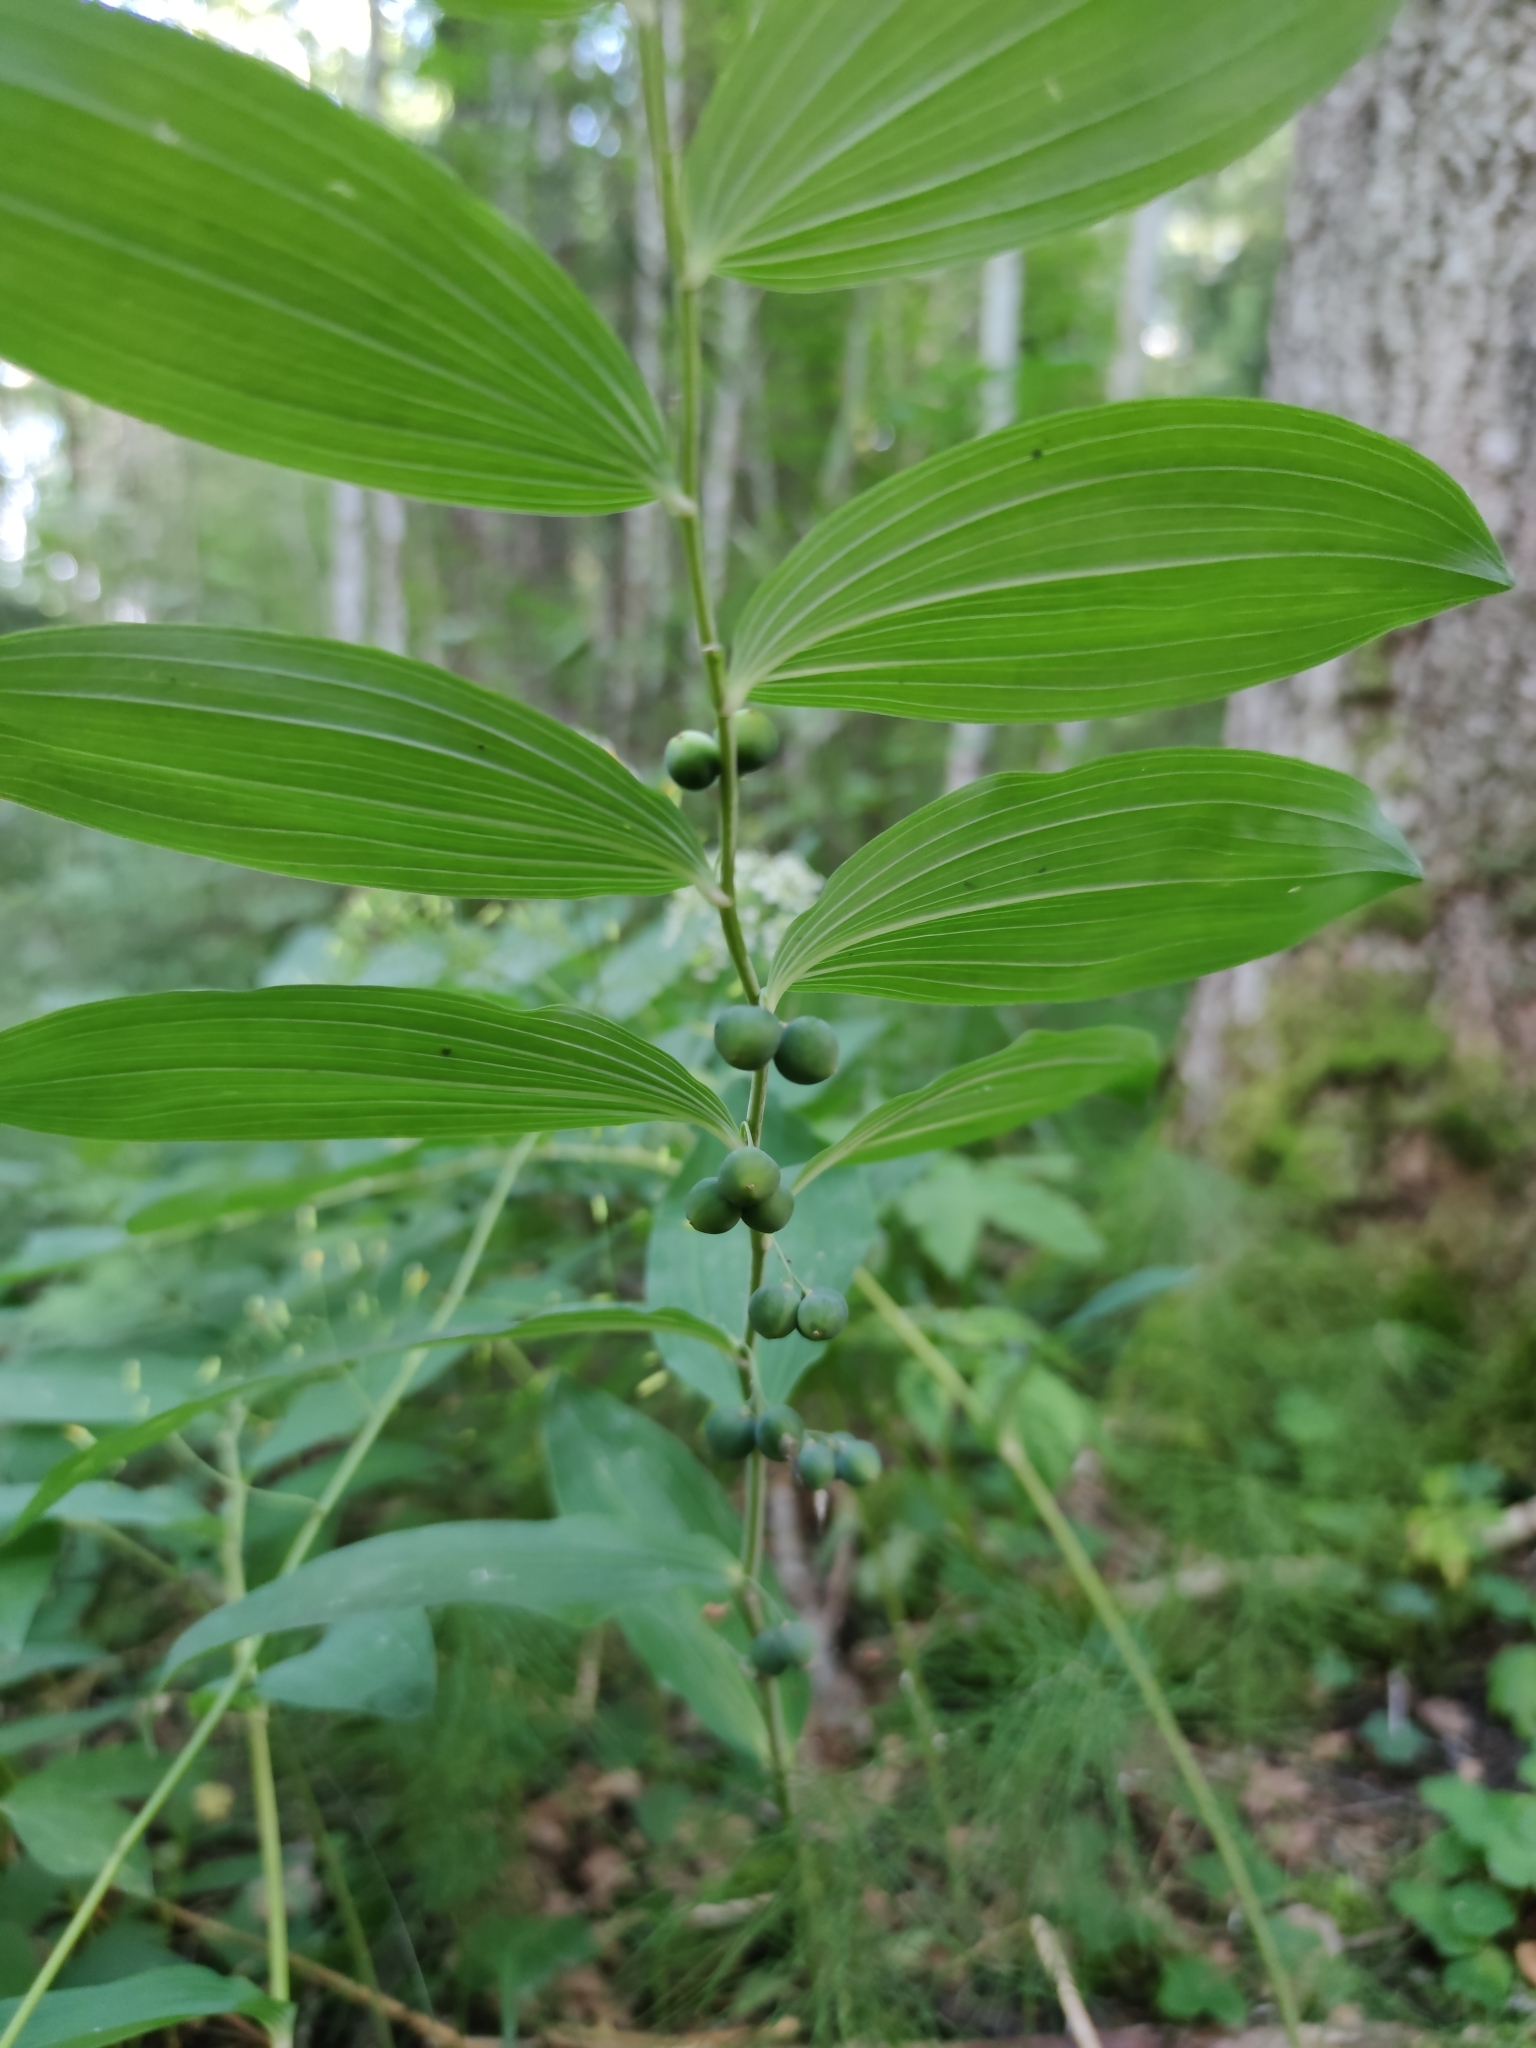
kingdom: Plantae
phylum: Tracheophyta
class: Liliopsida
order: Asparagales
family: Asparagaceae
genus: Polygonatum
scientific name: Polygonatum multiflorum
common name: Solomon's-seal
